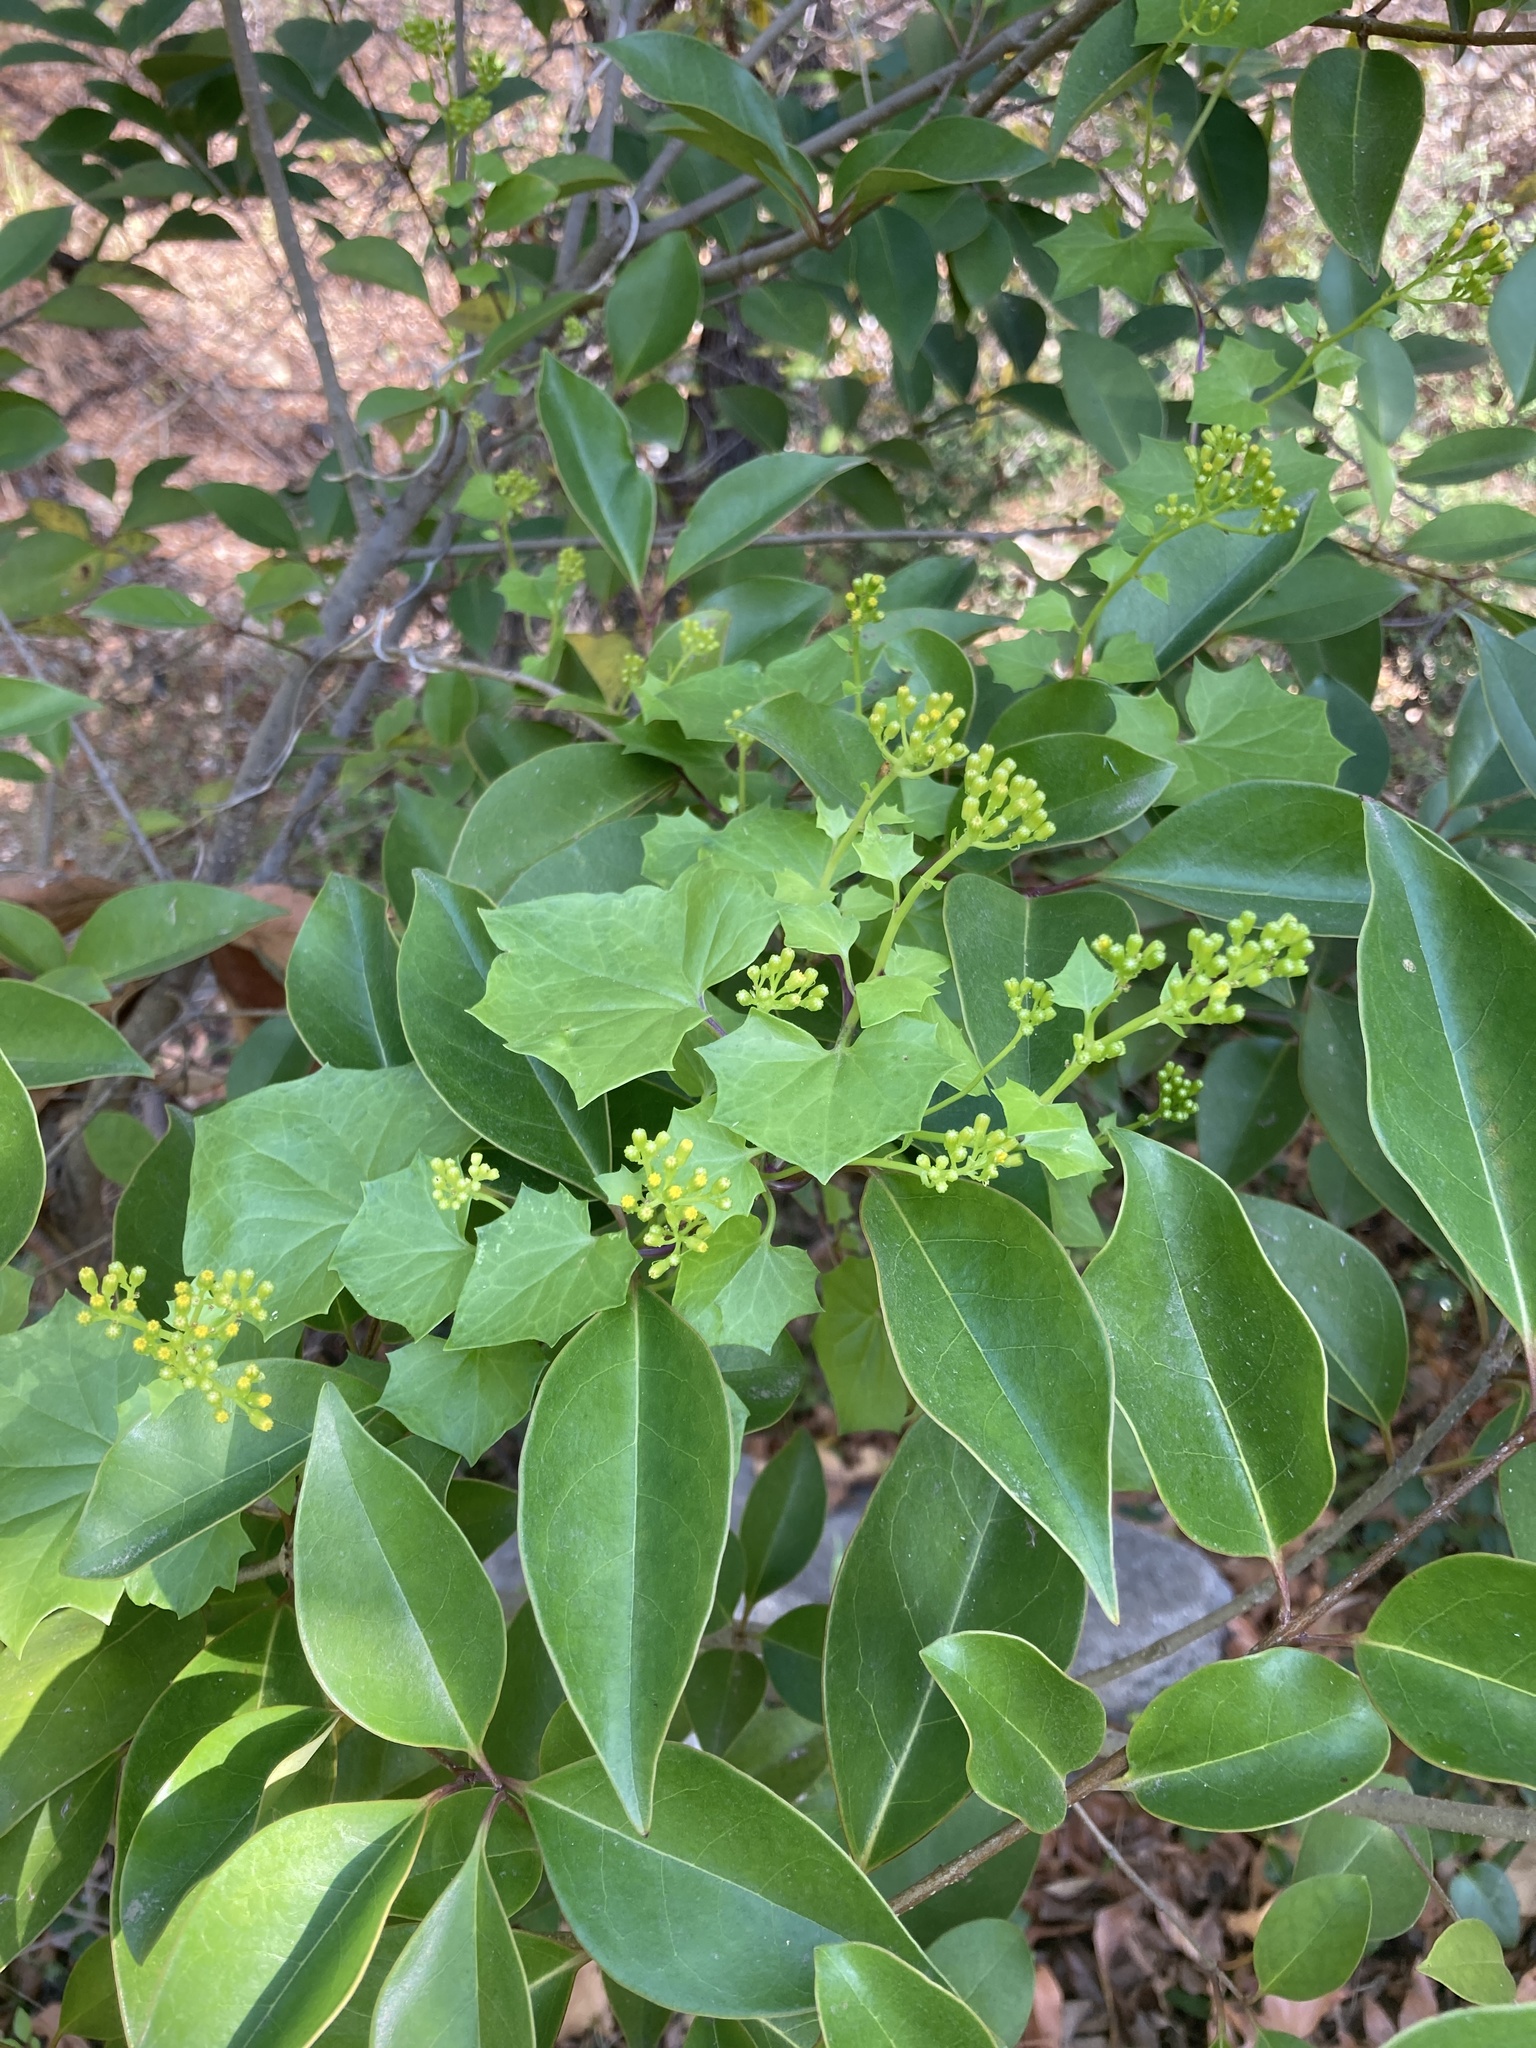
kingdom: Plantae
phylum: Tracheophyta
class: Magnoliopsida
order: Asterales
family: Asteraceae
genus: Delairea
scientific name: Delairea odorata
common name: Cape-ivy
